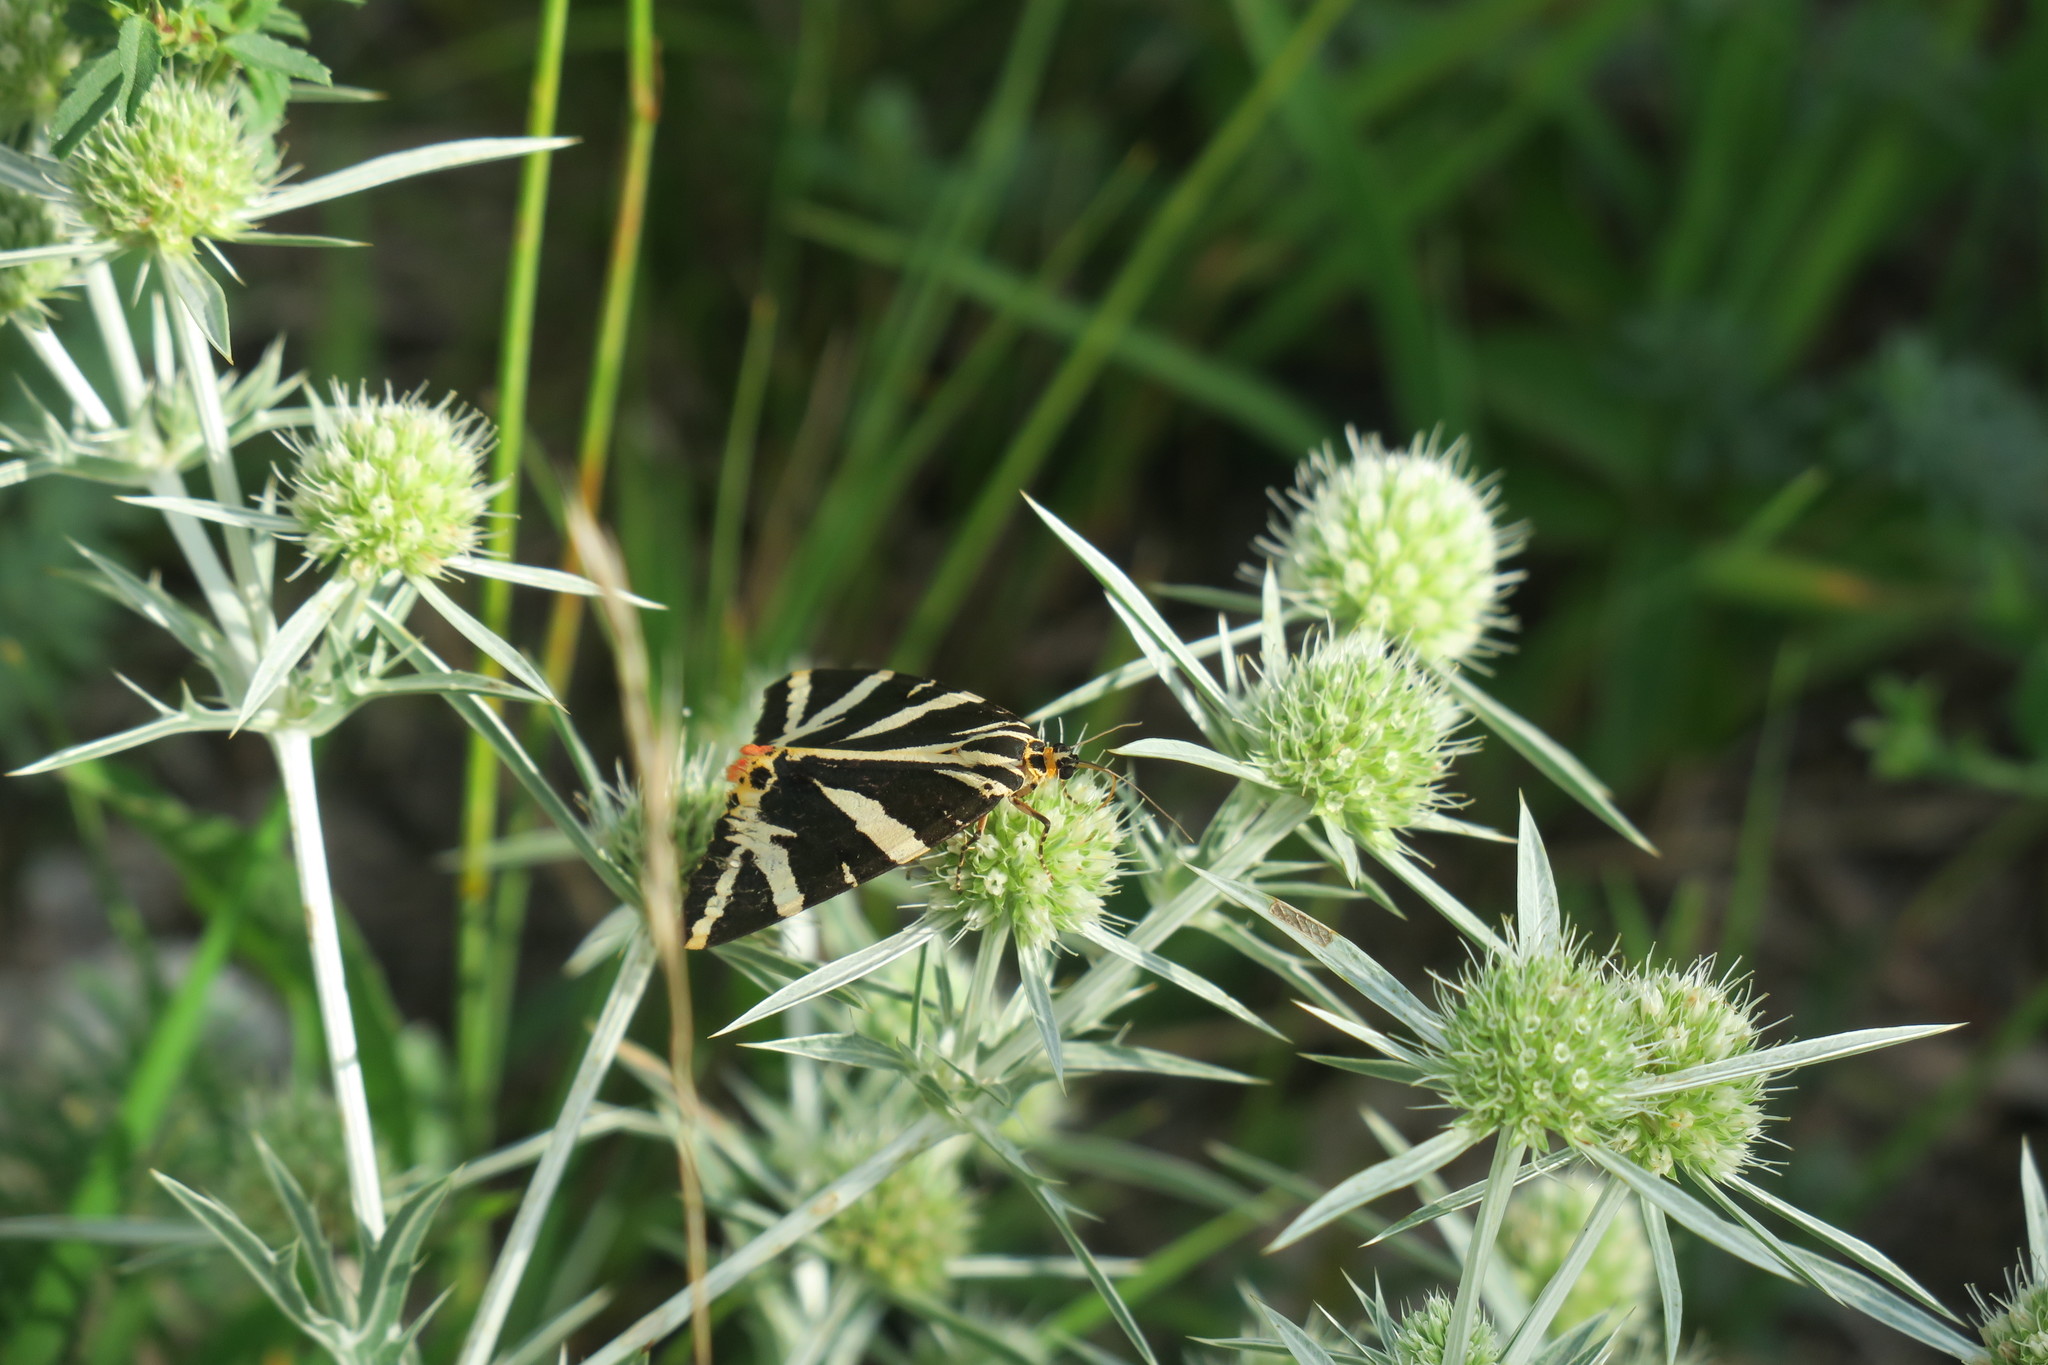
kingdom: Animalia
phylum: Arthropoda
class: Insecta
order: Lepidoptera
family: Erebidae
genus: Euplagia
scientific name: Euplagia quadripunctaria
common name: Jersey tiger
